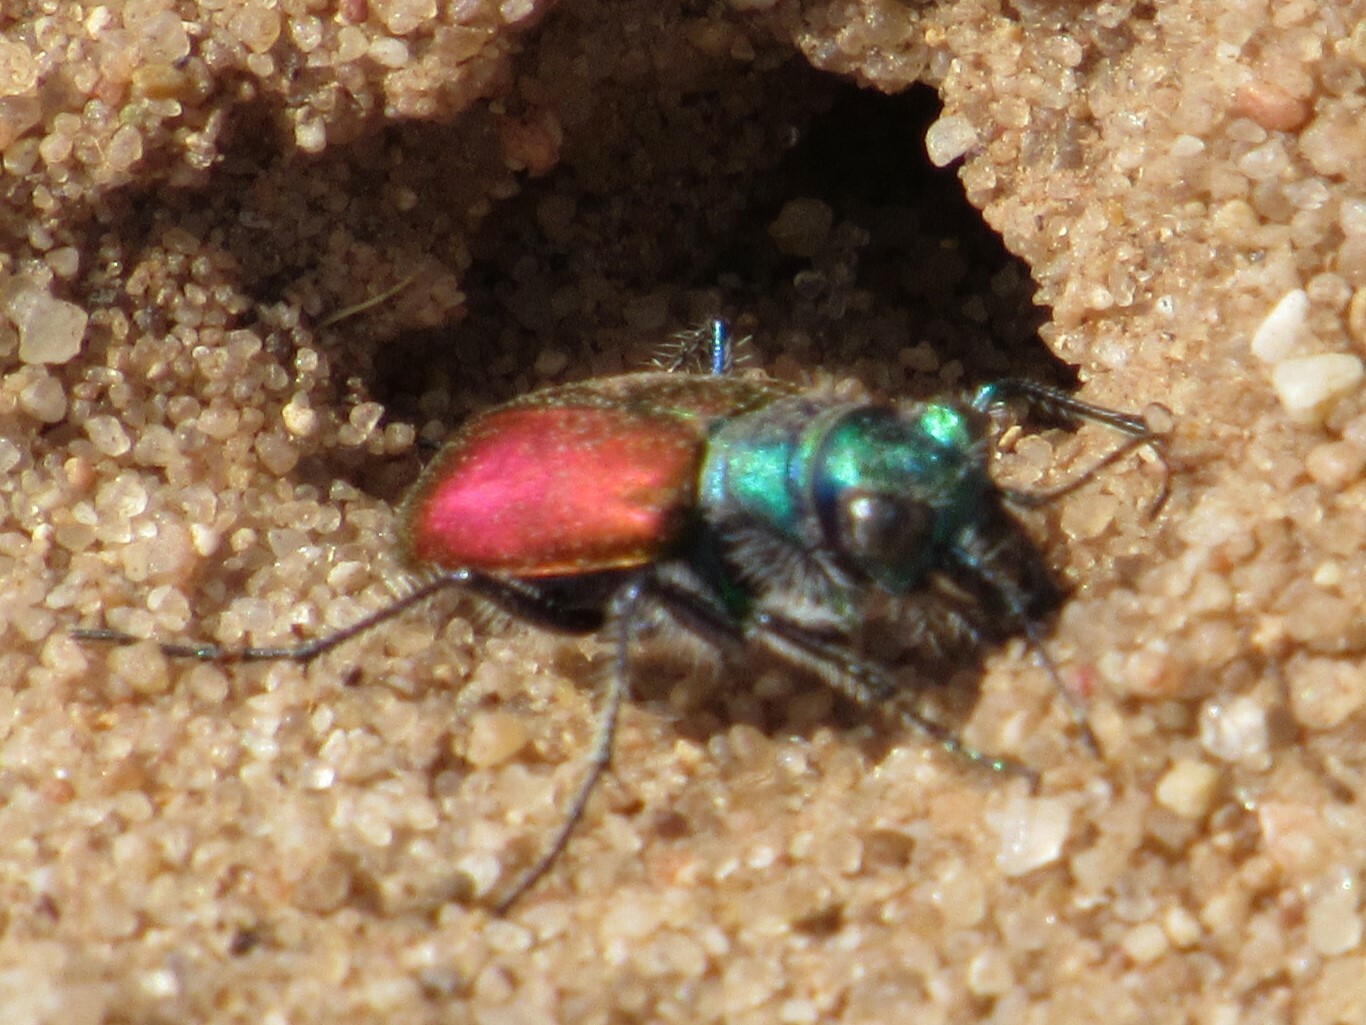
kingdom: Animalia
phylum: Arthropoda
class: Insecta
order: Coleoptera
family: Carabidae
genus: Cicindela
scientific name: Cicindela scutellaris
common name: Festive tiger beetle
